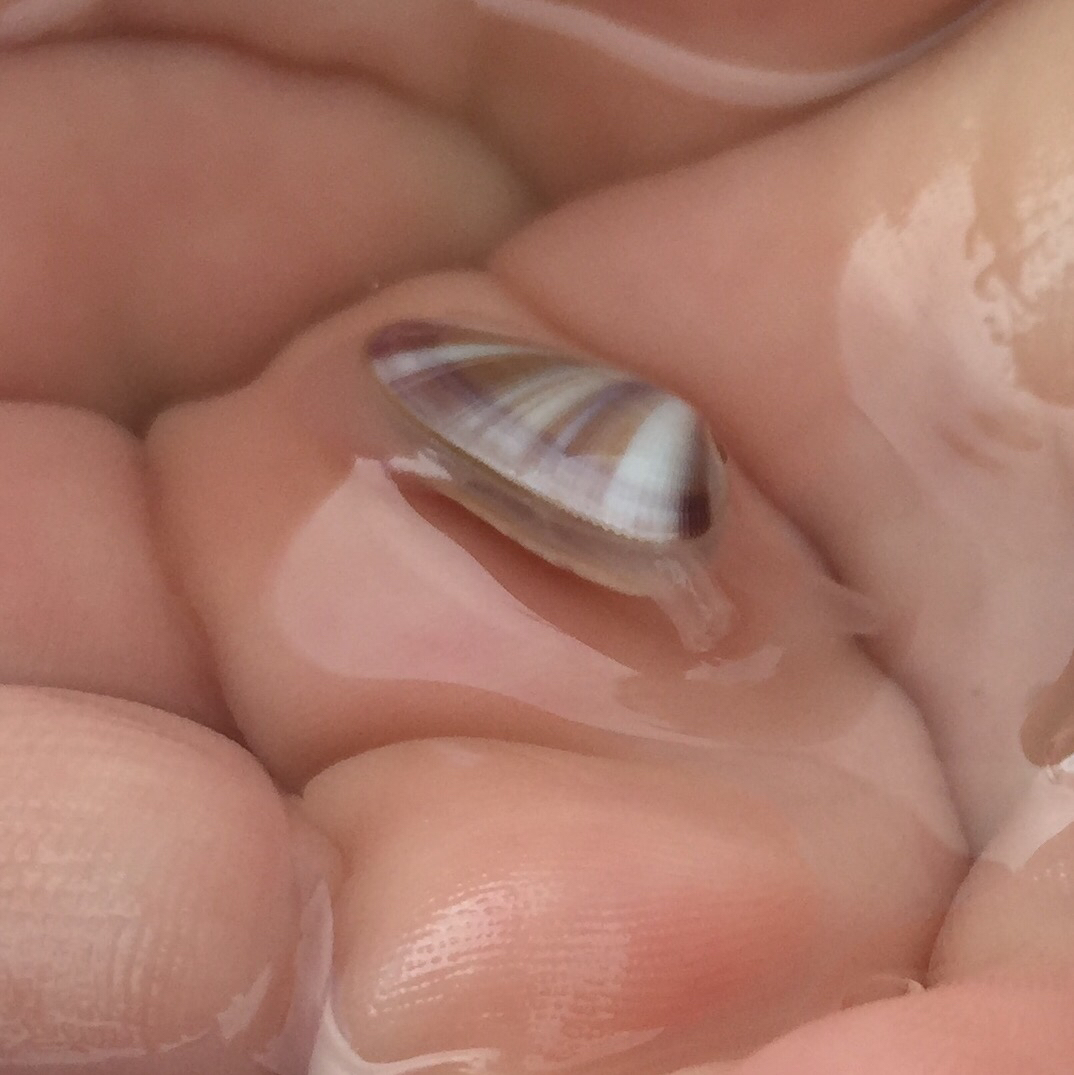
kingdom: Animalia
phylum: Mollusca
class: Bivalvia
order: Cardiida
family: Donacidae
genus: Donax
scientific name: Donax variabilis
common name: Butterfly shell
